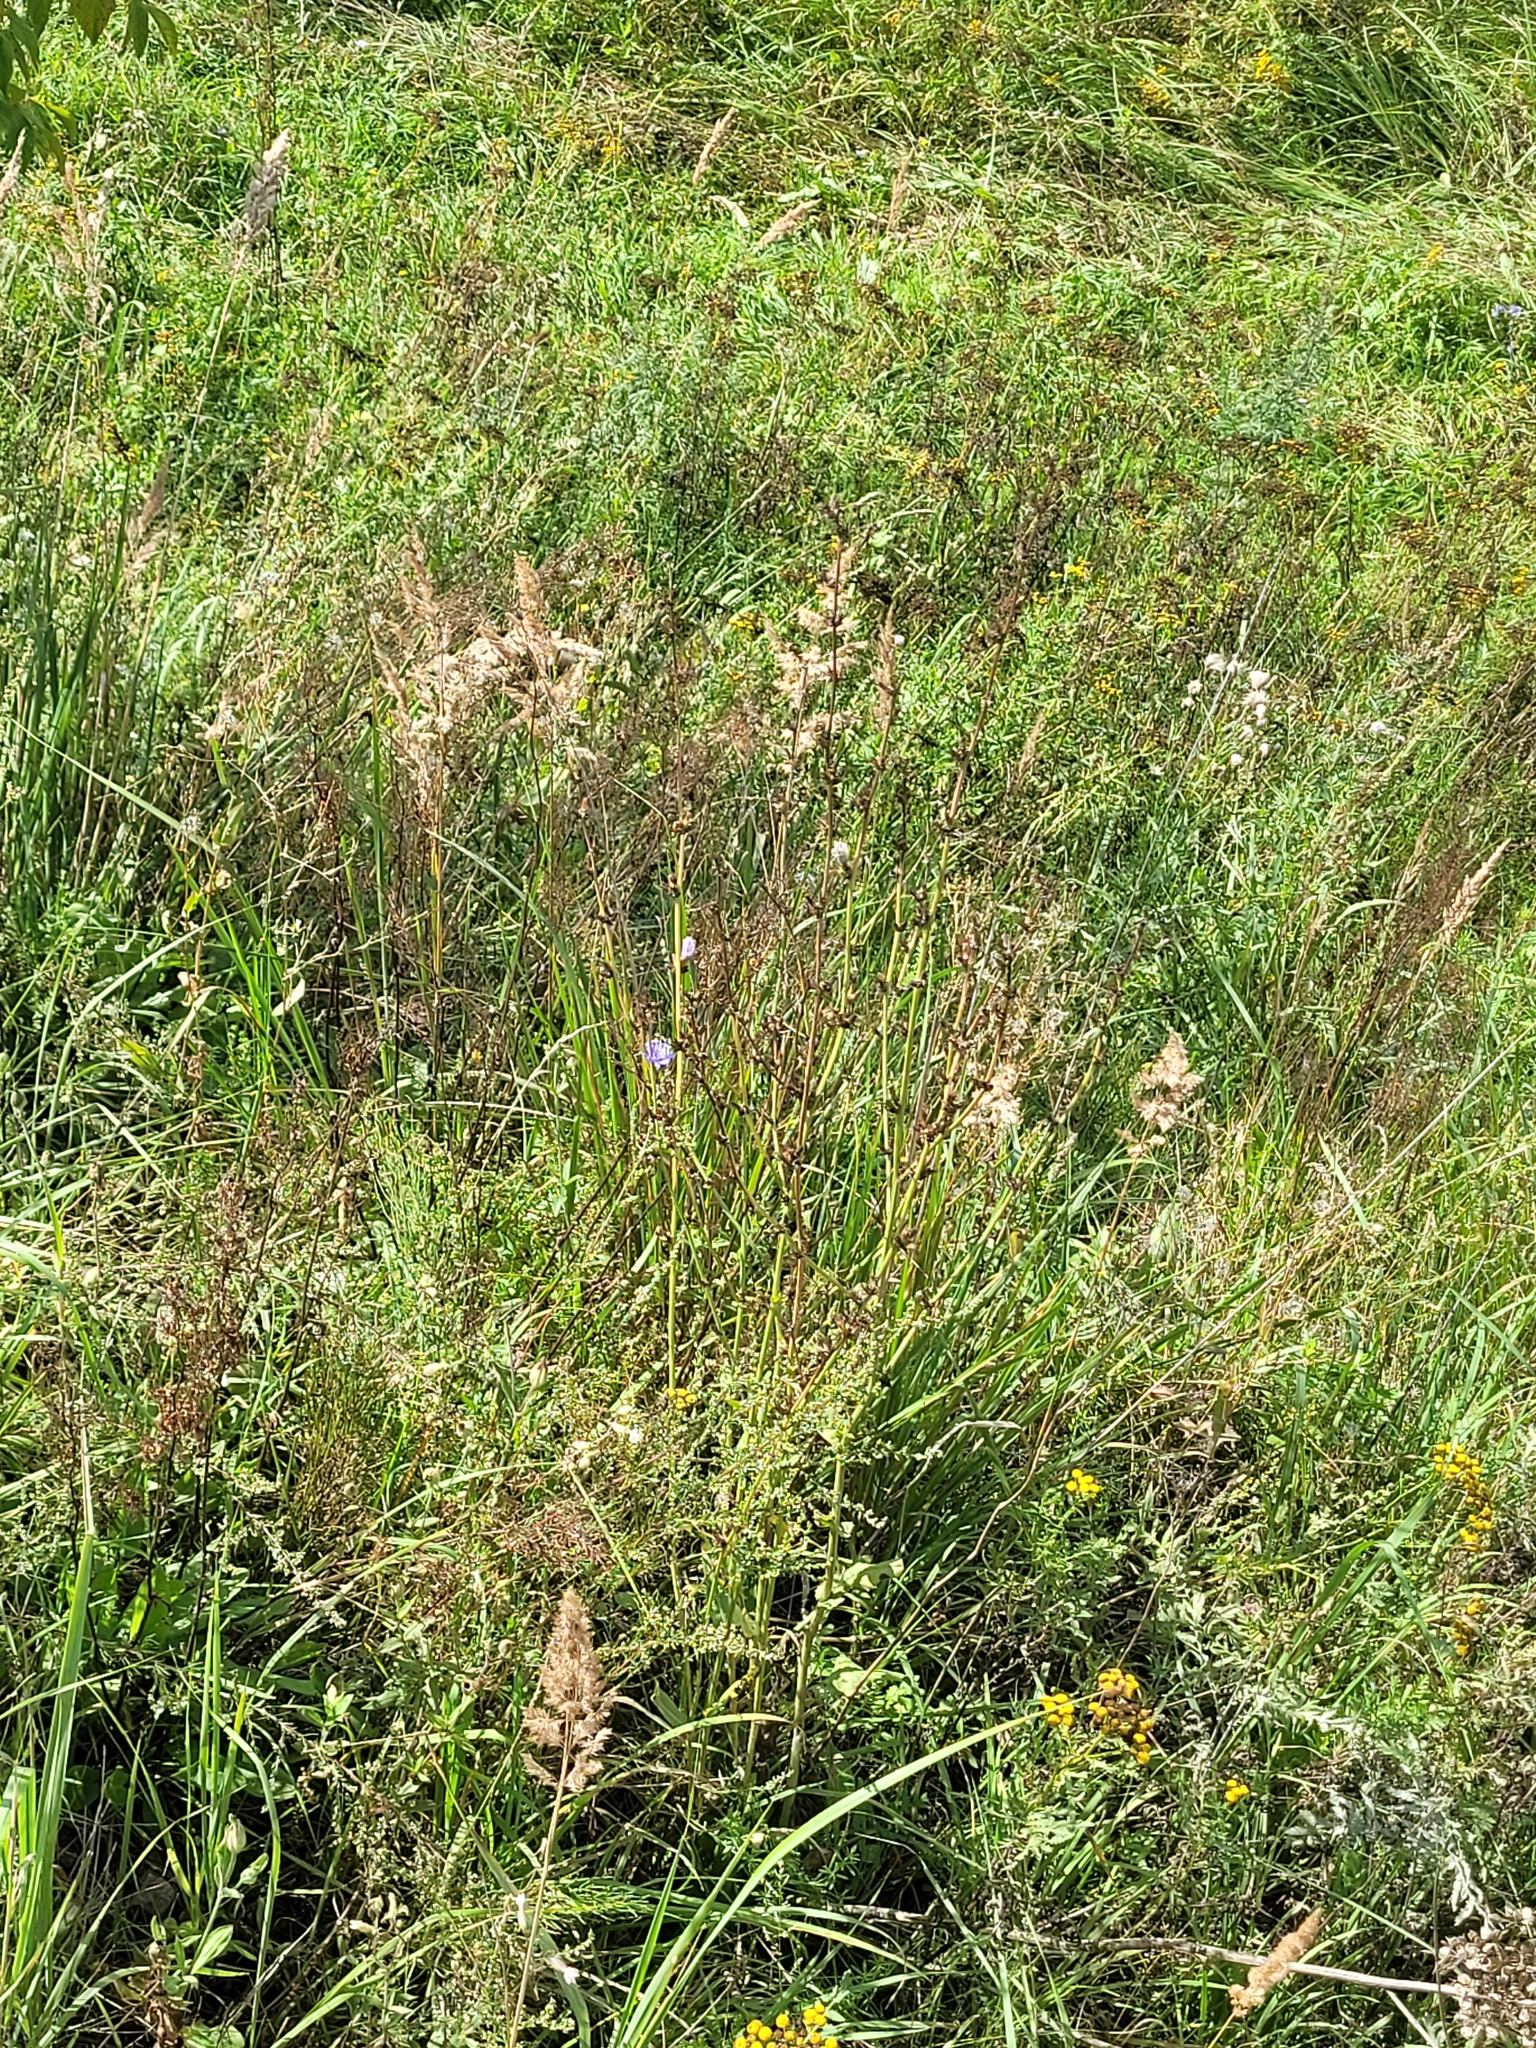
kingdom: Plantae
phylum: Tracheophyta
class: Magnoliopsida
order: Asterales
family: Asteraceae
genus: Cichorium
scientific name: Cichorium intybus
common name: Chicory
